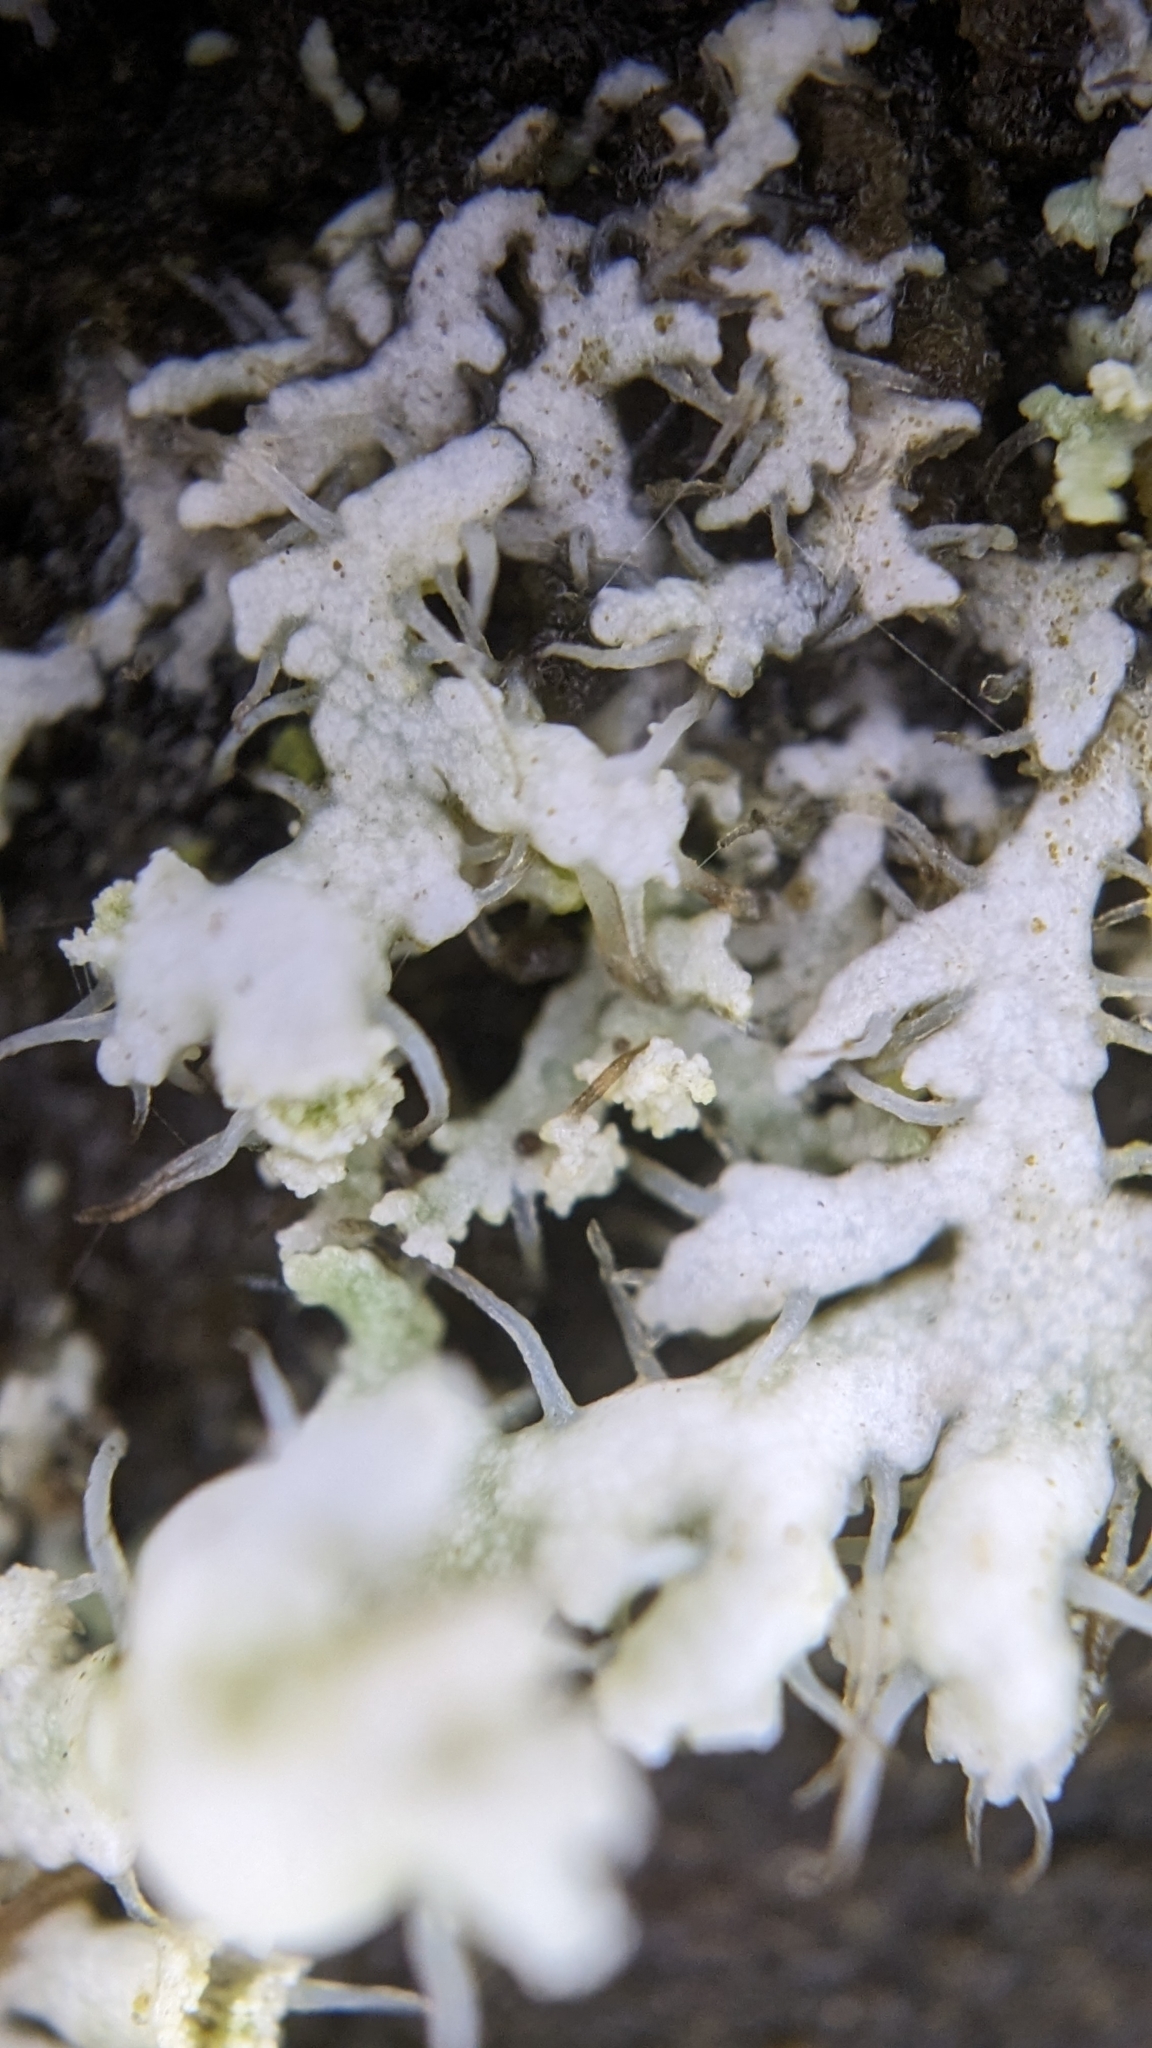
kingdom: Fungi
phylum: Ascomycota
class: Lecanoromycetes
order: Caliciales
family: Physciaceae
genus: Physcia
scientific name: Physcia adscendens
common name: Hooded rosette lichen
